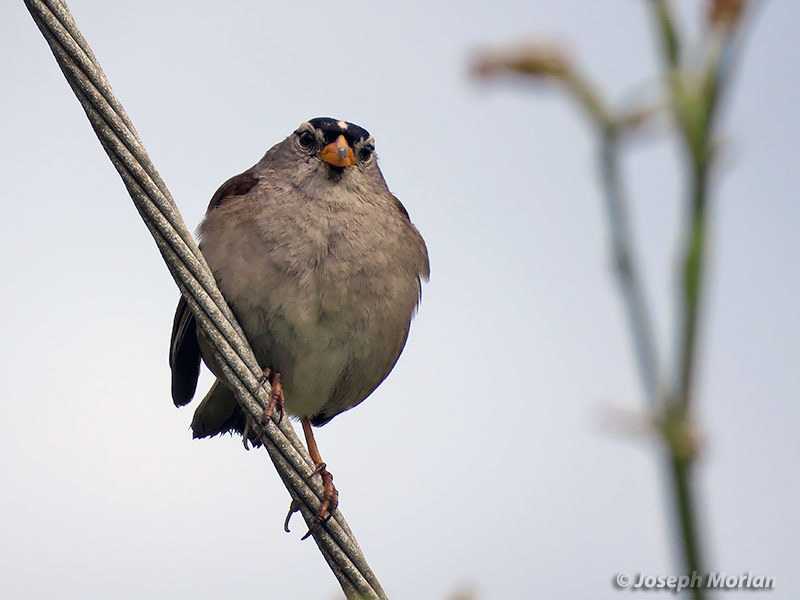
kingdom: Animalia
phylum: Chordata
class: Aves
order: Passeriformes
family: Passerellidae
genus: Zonotrichia
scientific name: Zonotrichia leucophrys
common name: White-crowned sparrow
